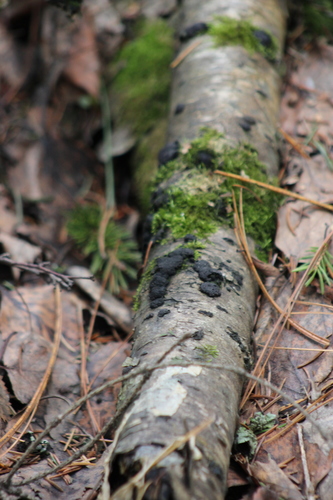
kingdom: Fungi
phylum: Ascomycota
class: Sordariomycetes
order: Xylariales
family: Hypoxylaceae
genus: Jackrogersella
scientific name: Jackrogersella multiformis
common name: Birch woodwart
